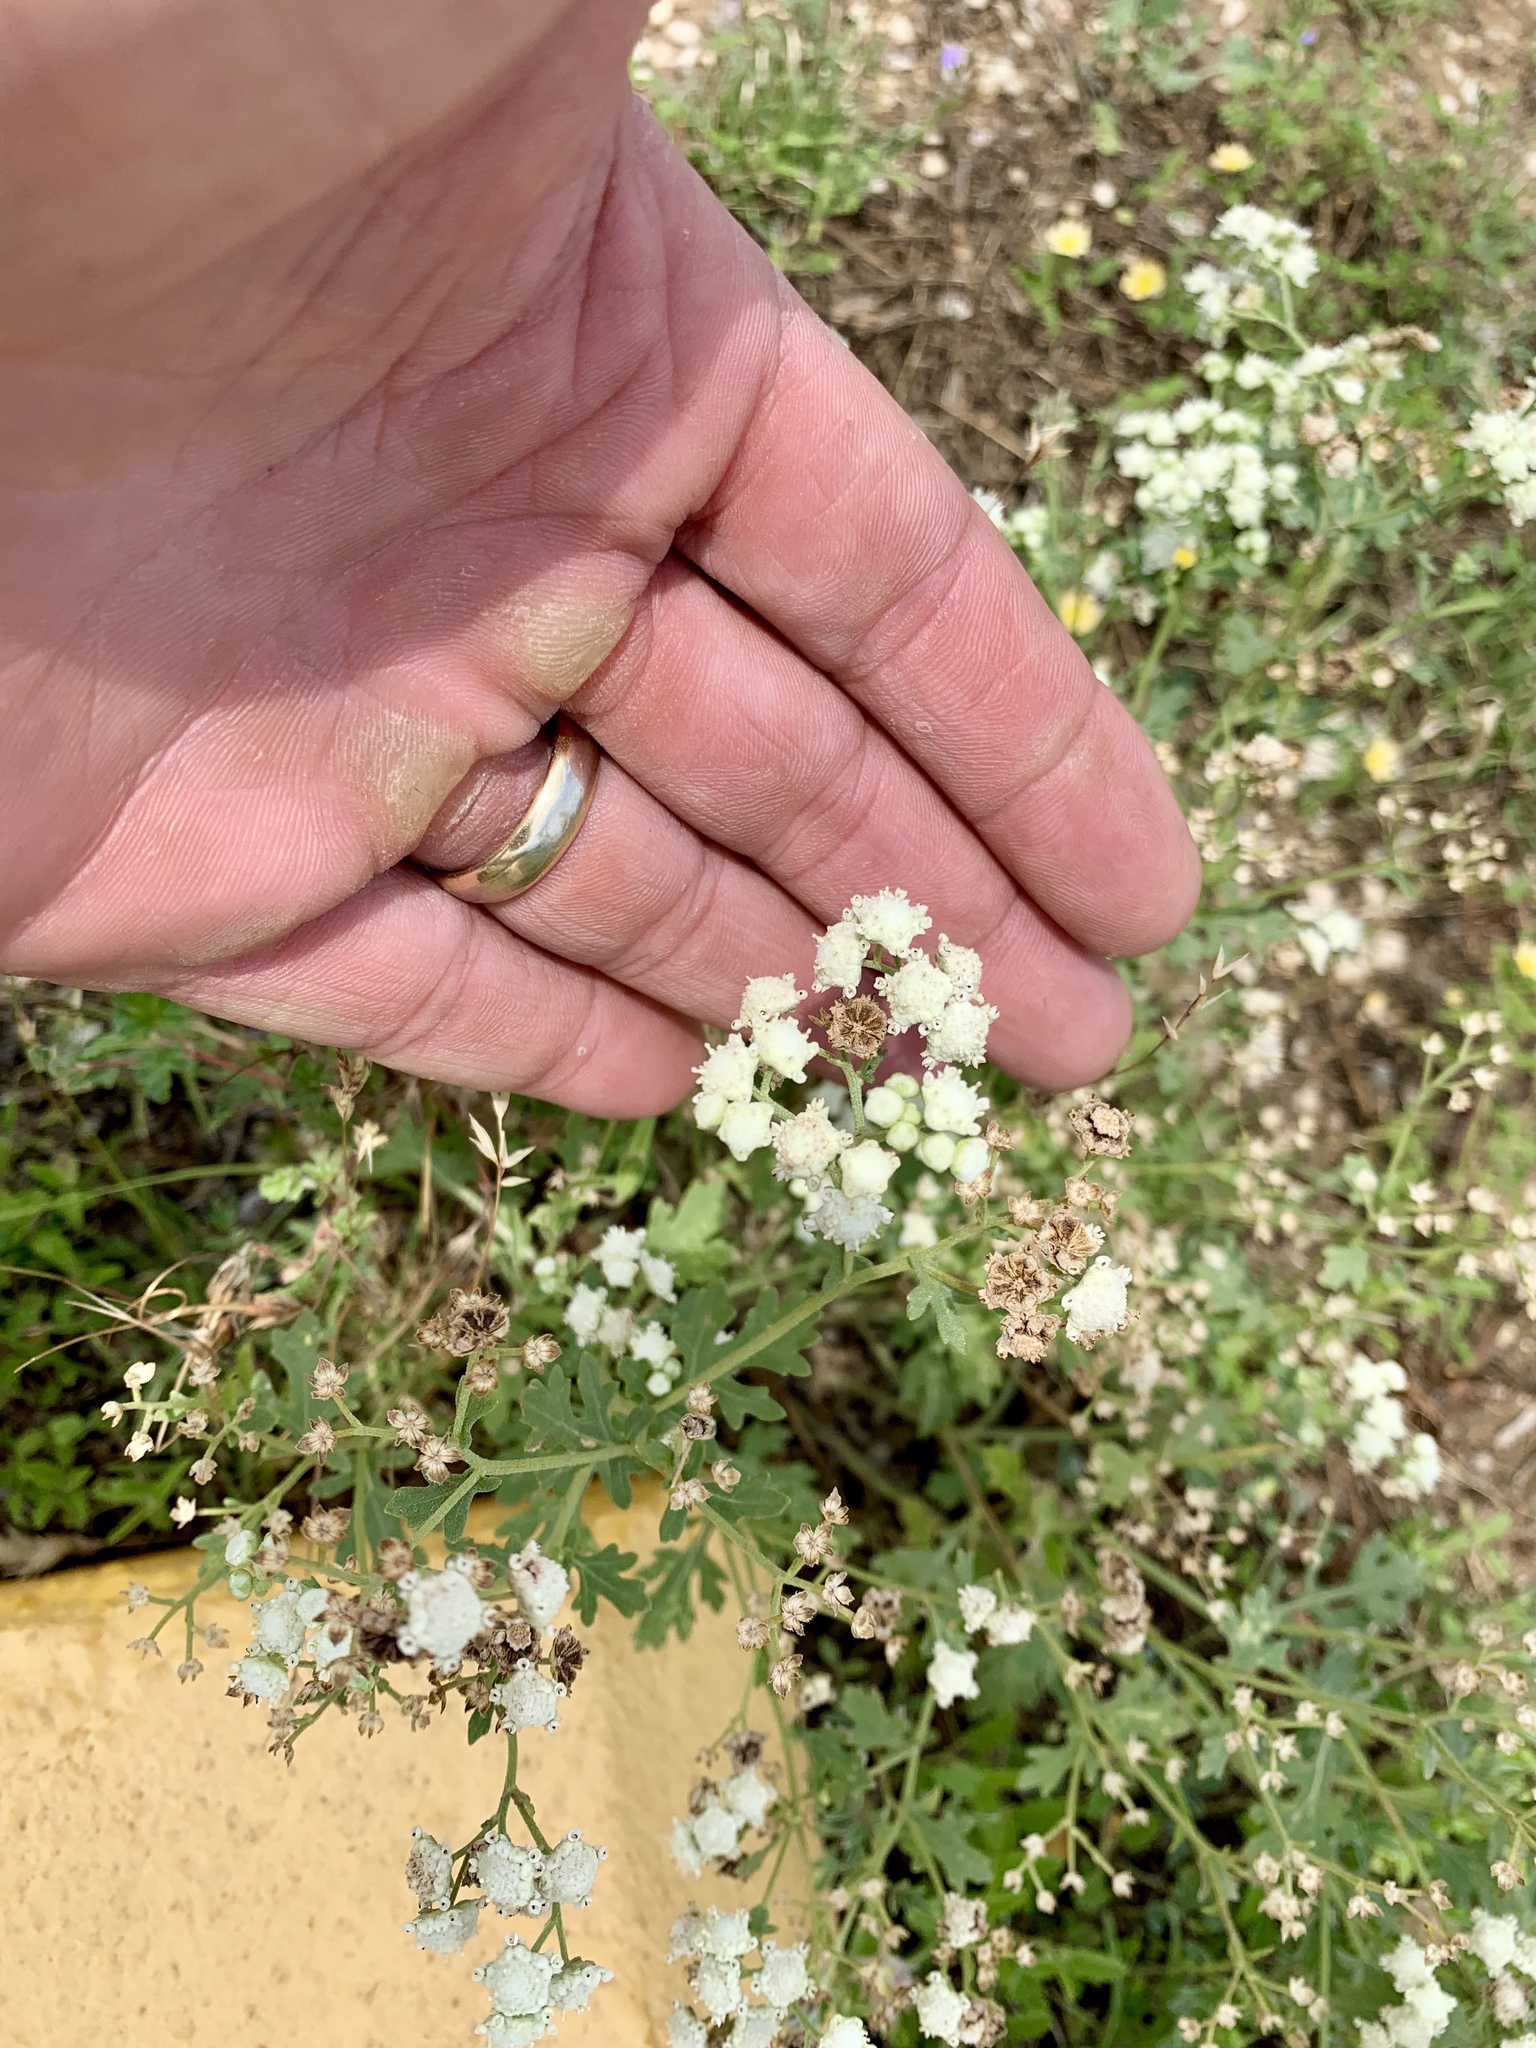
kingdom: Plantae
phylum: Tracheophyta
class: Magnoliopsida
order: Asterales
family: Asteraceae
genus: Parthenium
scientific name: Parthenium confertum
